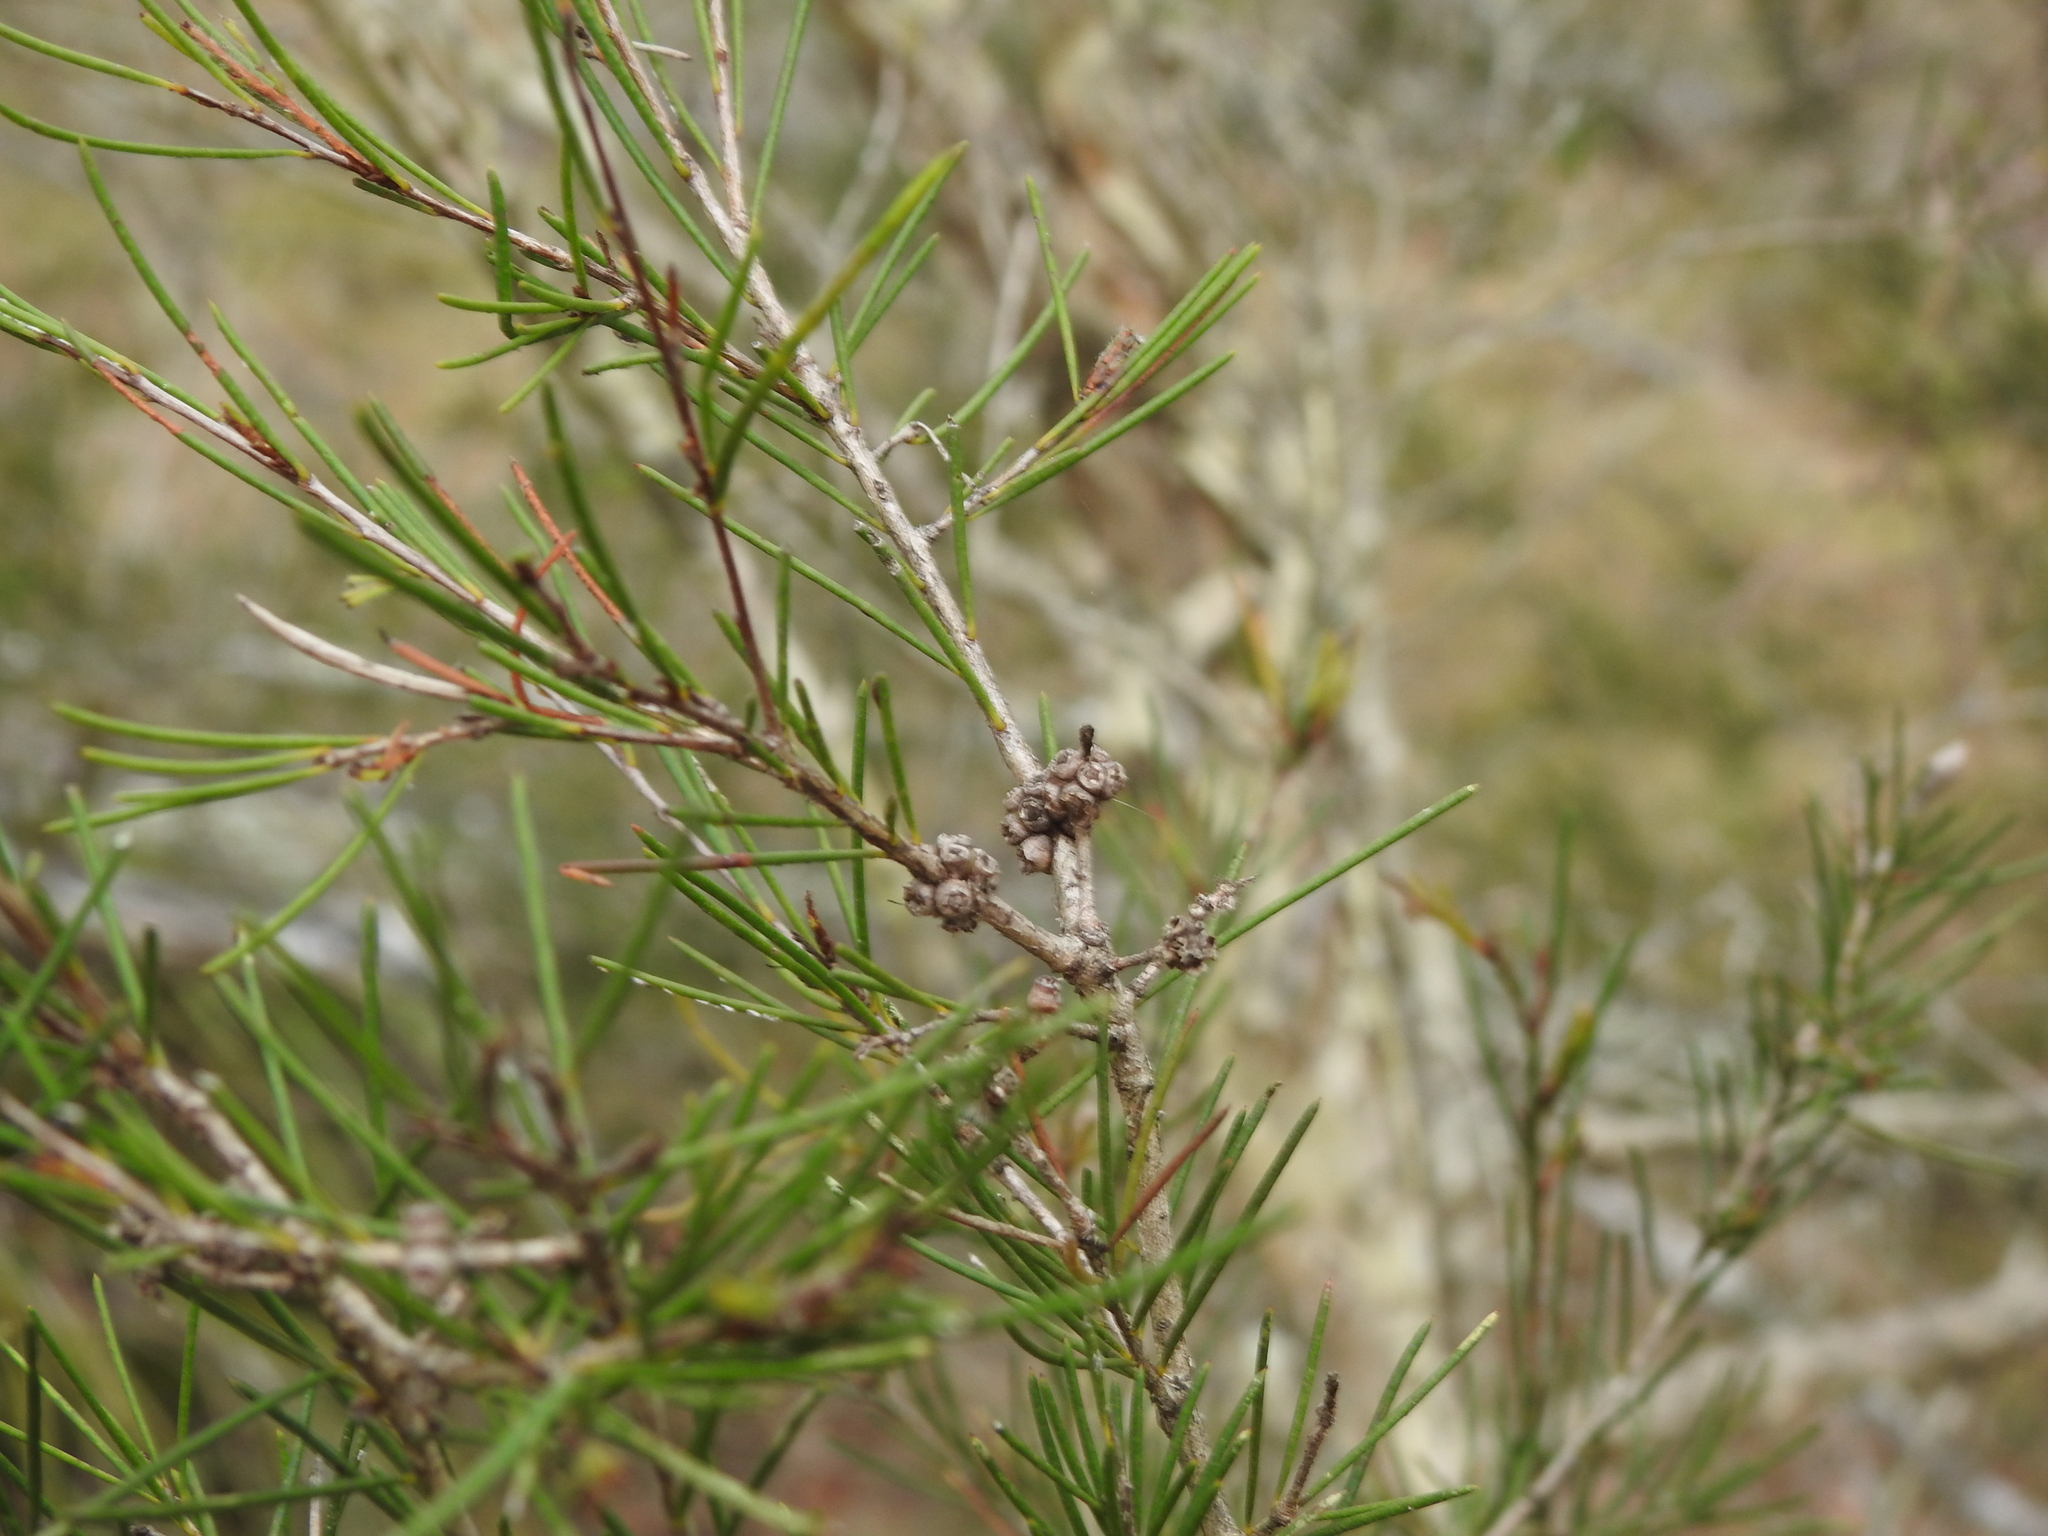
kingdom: Plantae
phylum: Tracheophyta
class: Magnoliopsida
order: Myrtales
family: Myrtaceae
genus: Melaleuca
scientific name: Melaleuca nodosa
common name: Prickly-leaf paperbark
